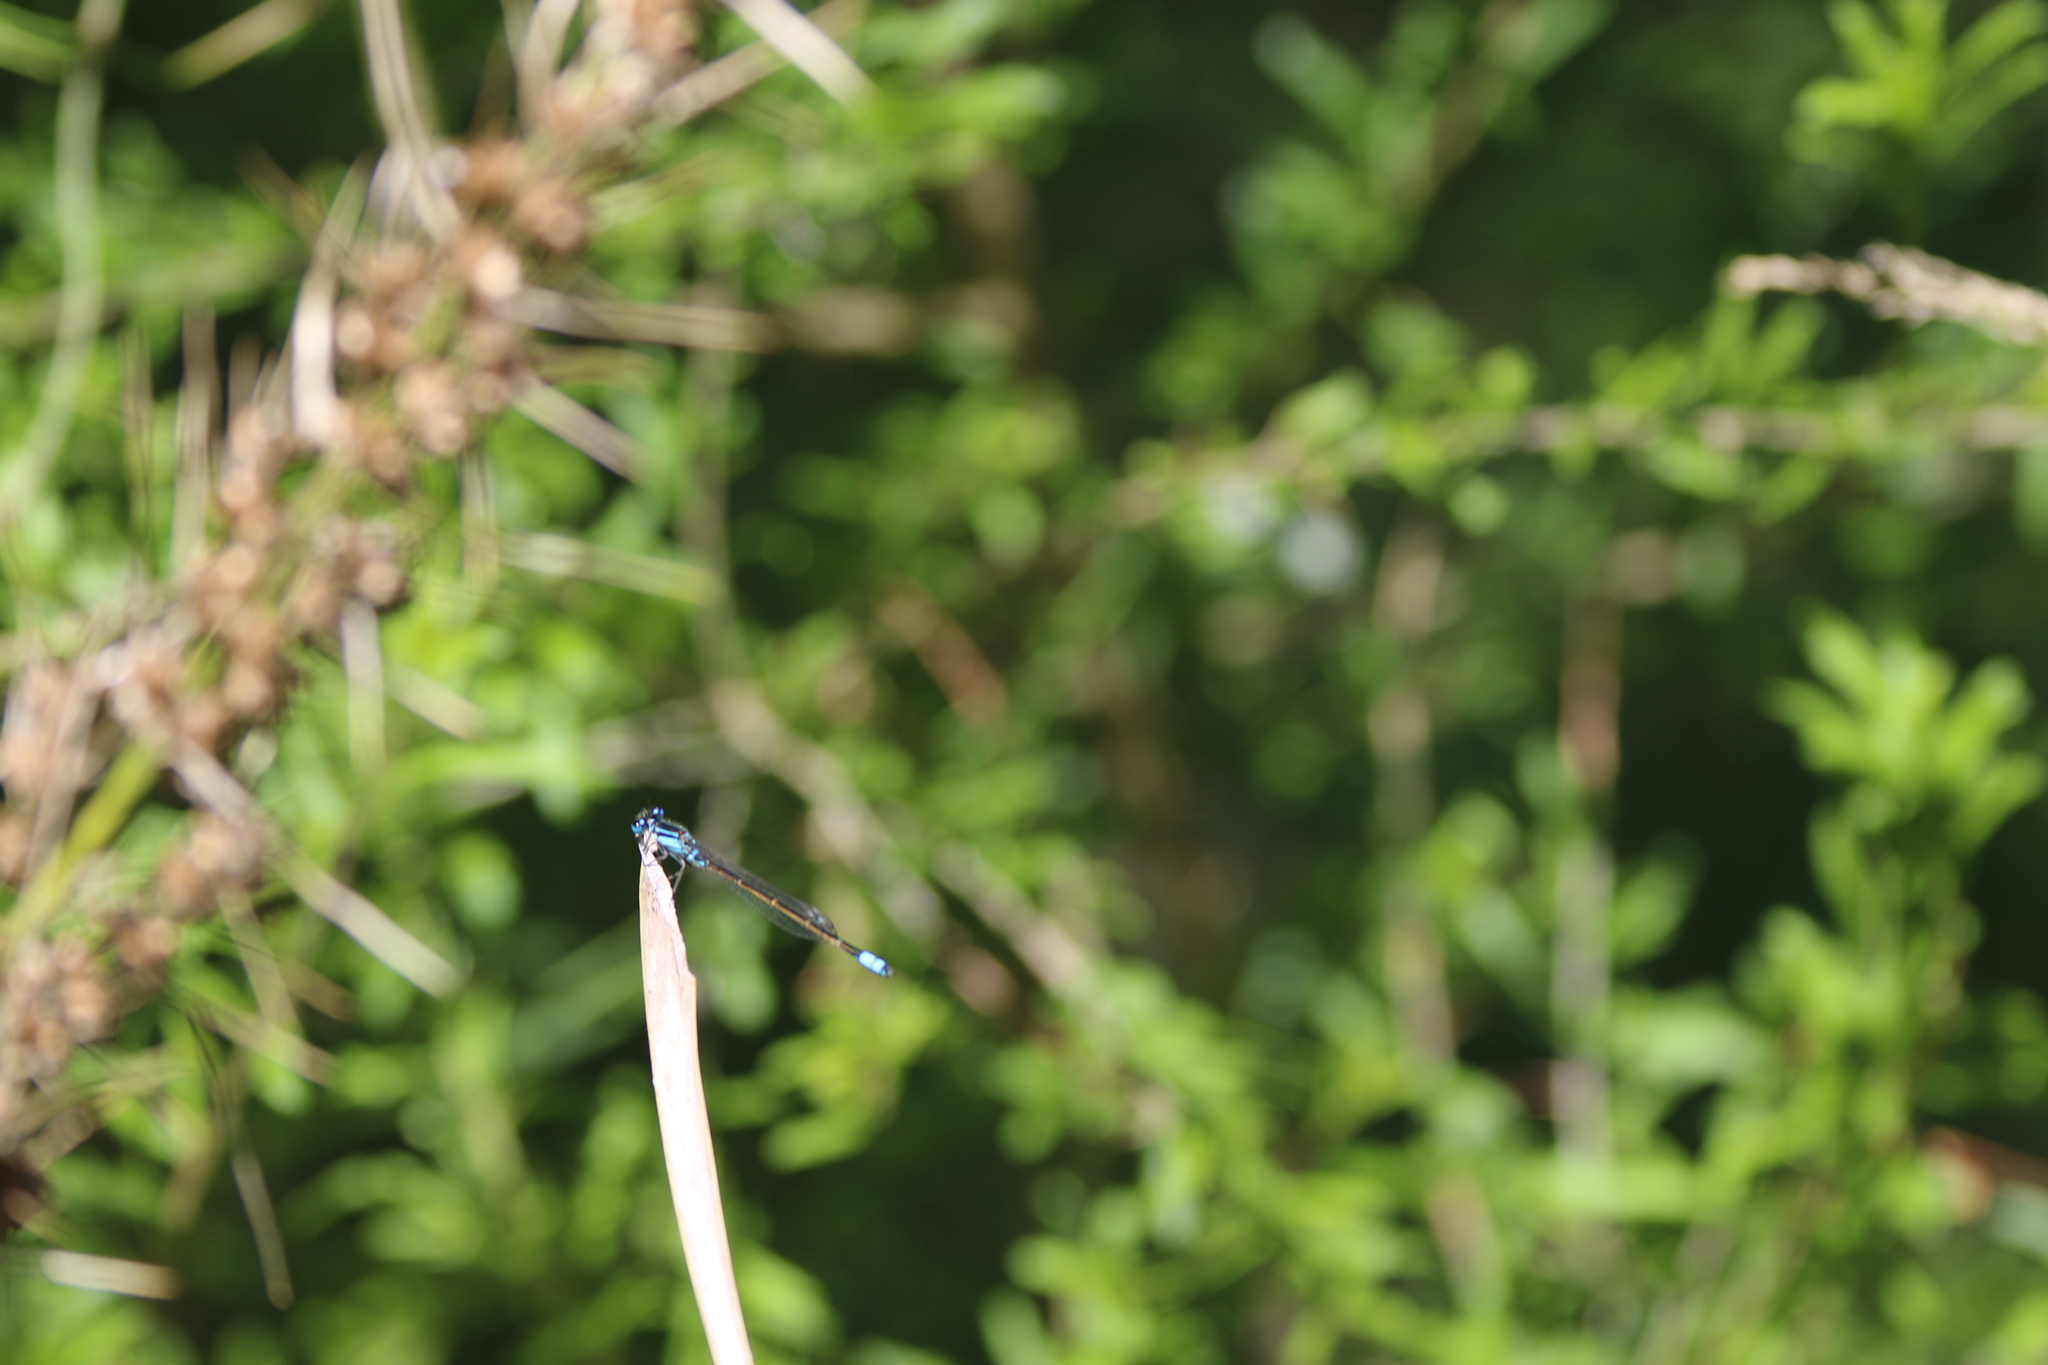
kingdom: Animalia
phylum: Arthropoda
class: Insecta
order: Odonata
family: Coenagrionidae
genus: Ischnura
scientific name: Ischnura heterosticta
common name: Common bluetail
